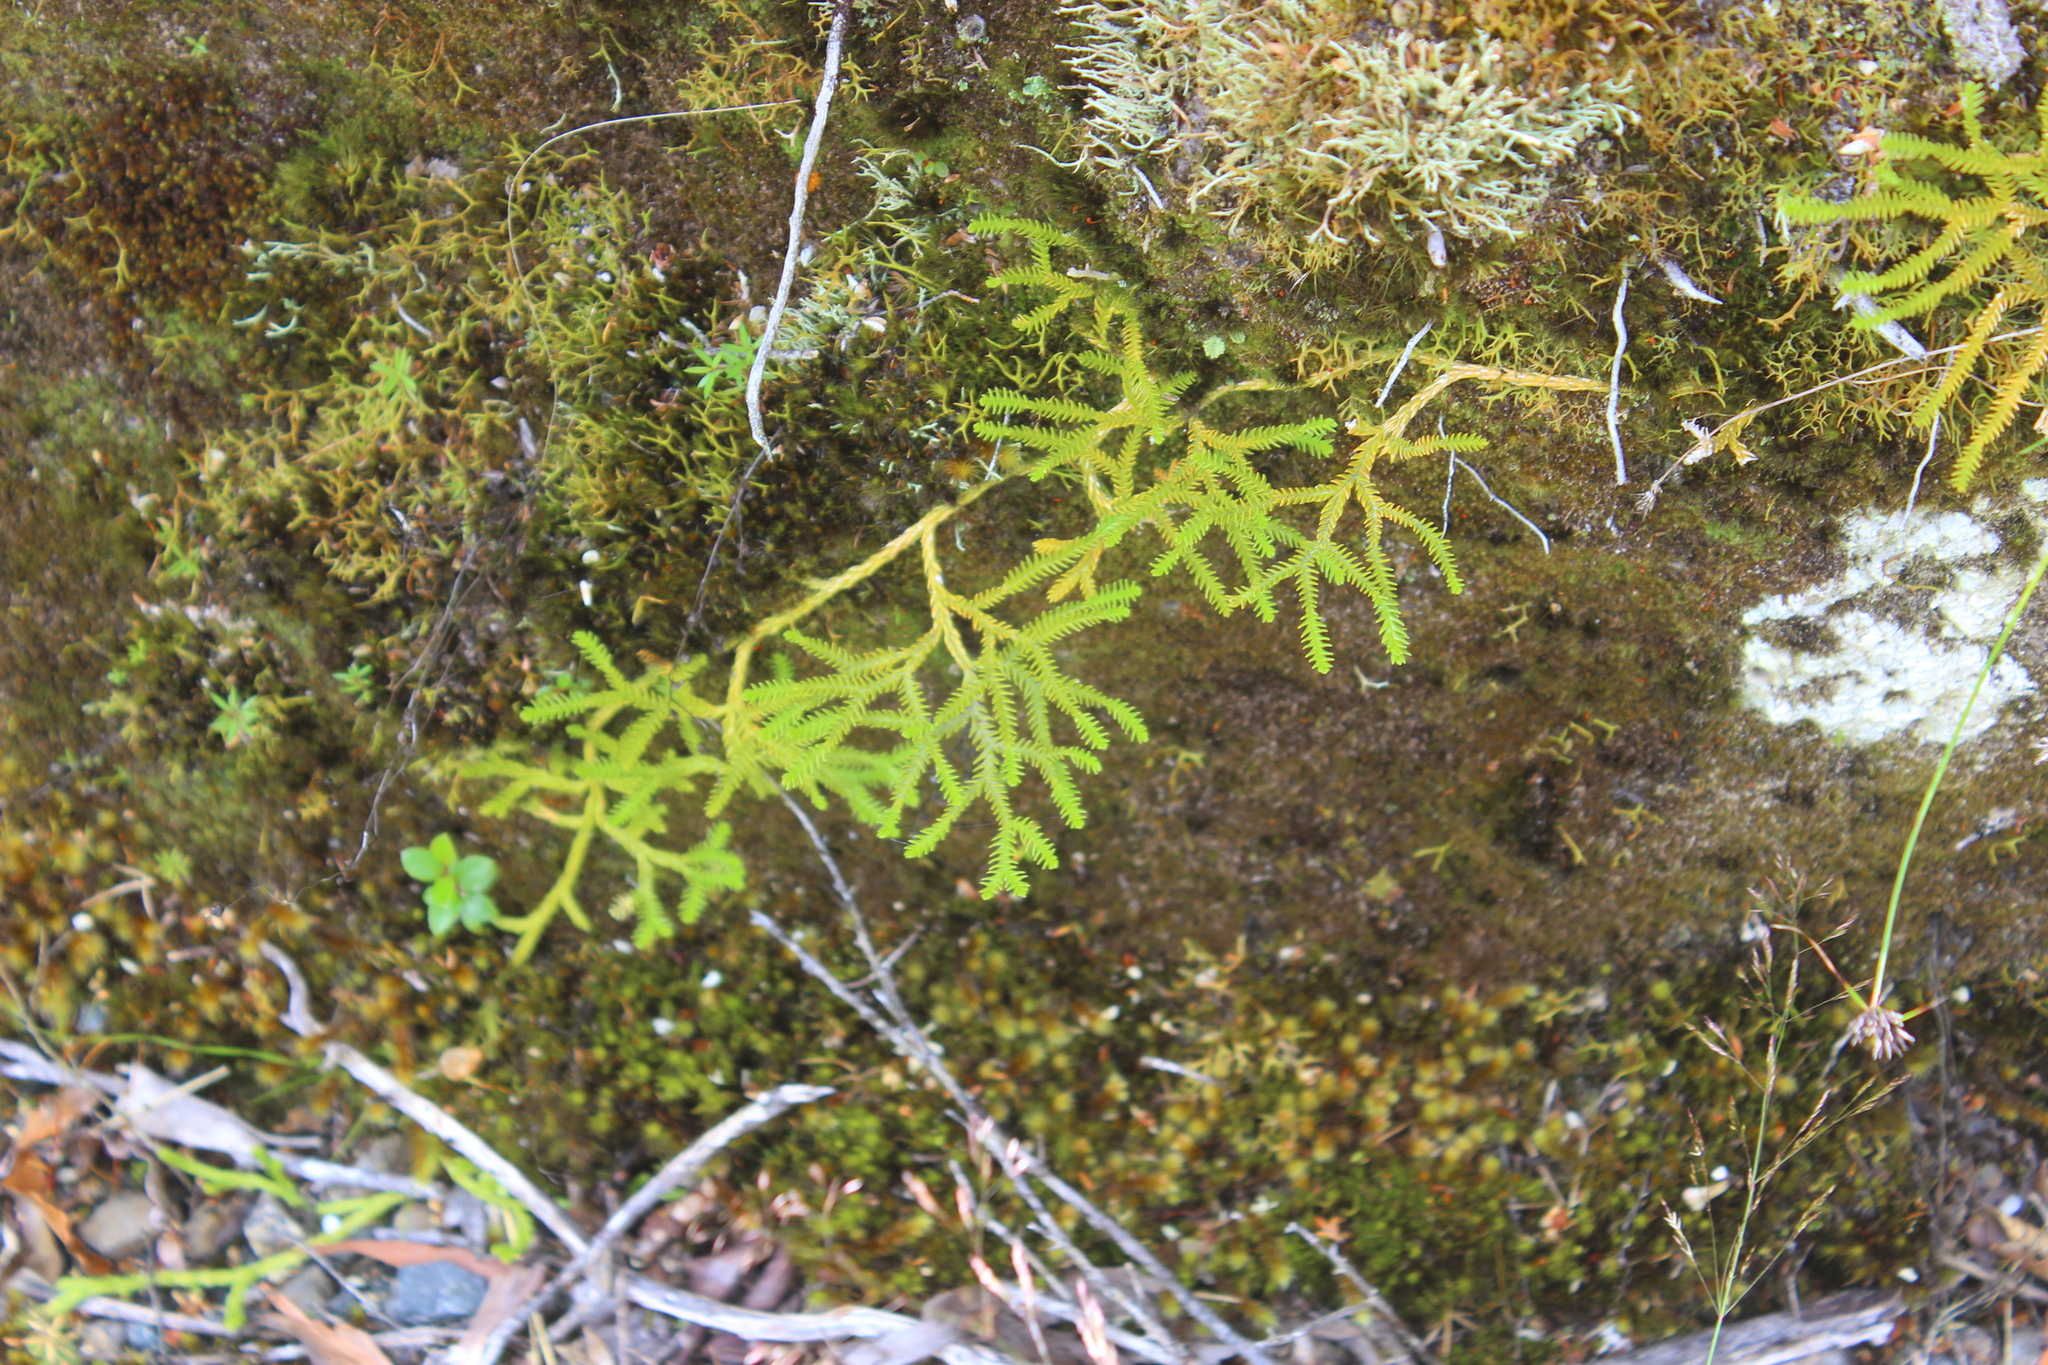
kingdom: Plantae
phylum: Tracheophyta
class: Lycopodiopsida
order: Lycopodiales
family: Lycopodiaceae
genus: Diphasium
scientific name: Diphasium scariosum
